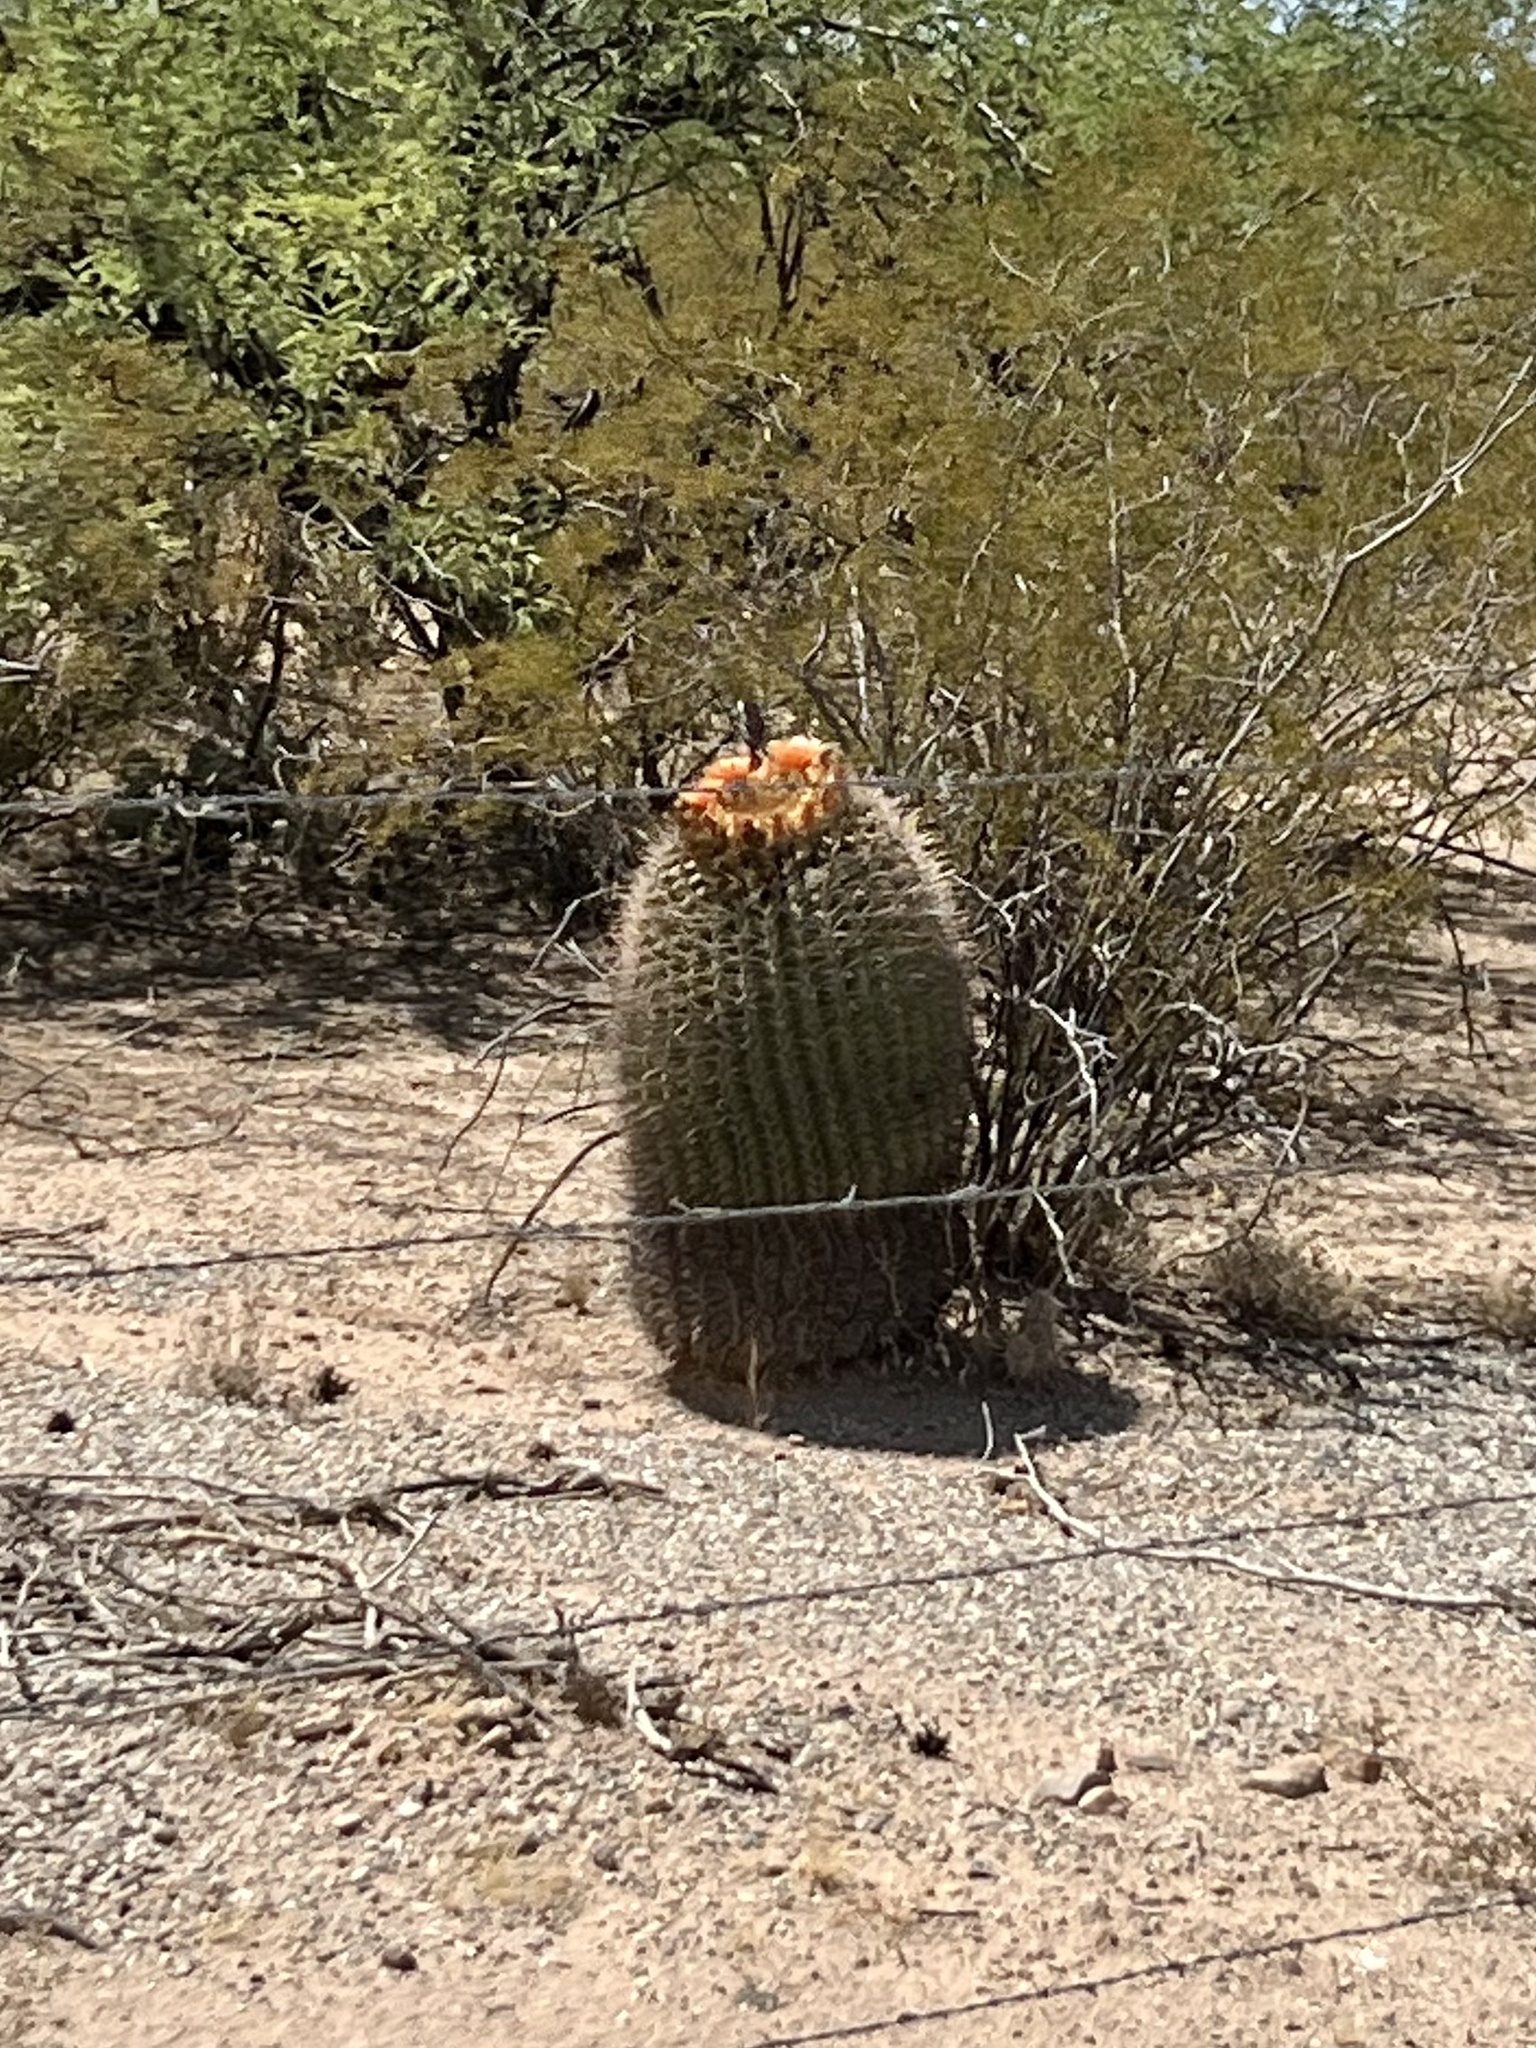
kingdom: Plantae
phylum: Tracheophyta
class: Magnoliopsida
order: Caryophyllales
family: Cactaceae
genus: Ferocactus
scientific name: Ferocactus wislizeni
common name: Candy barrel cactus
